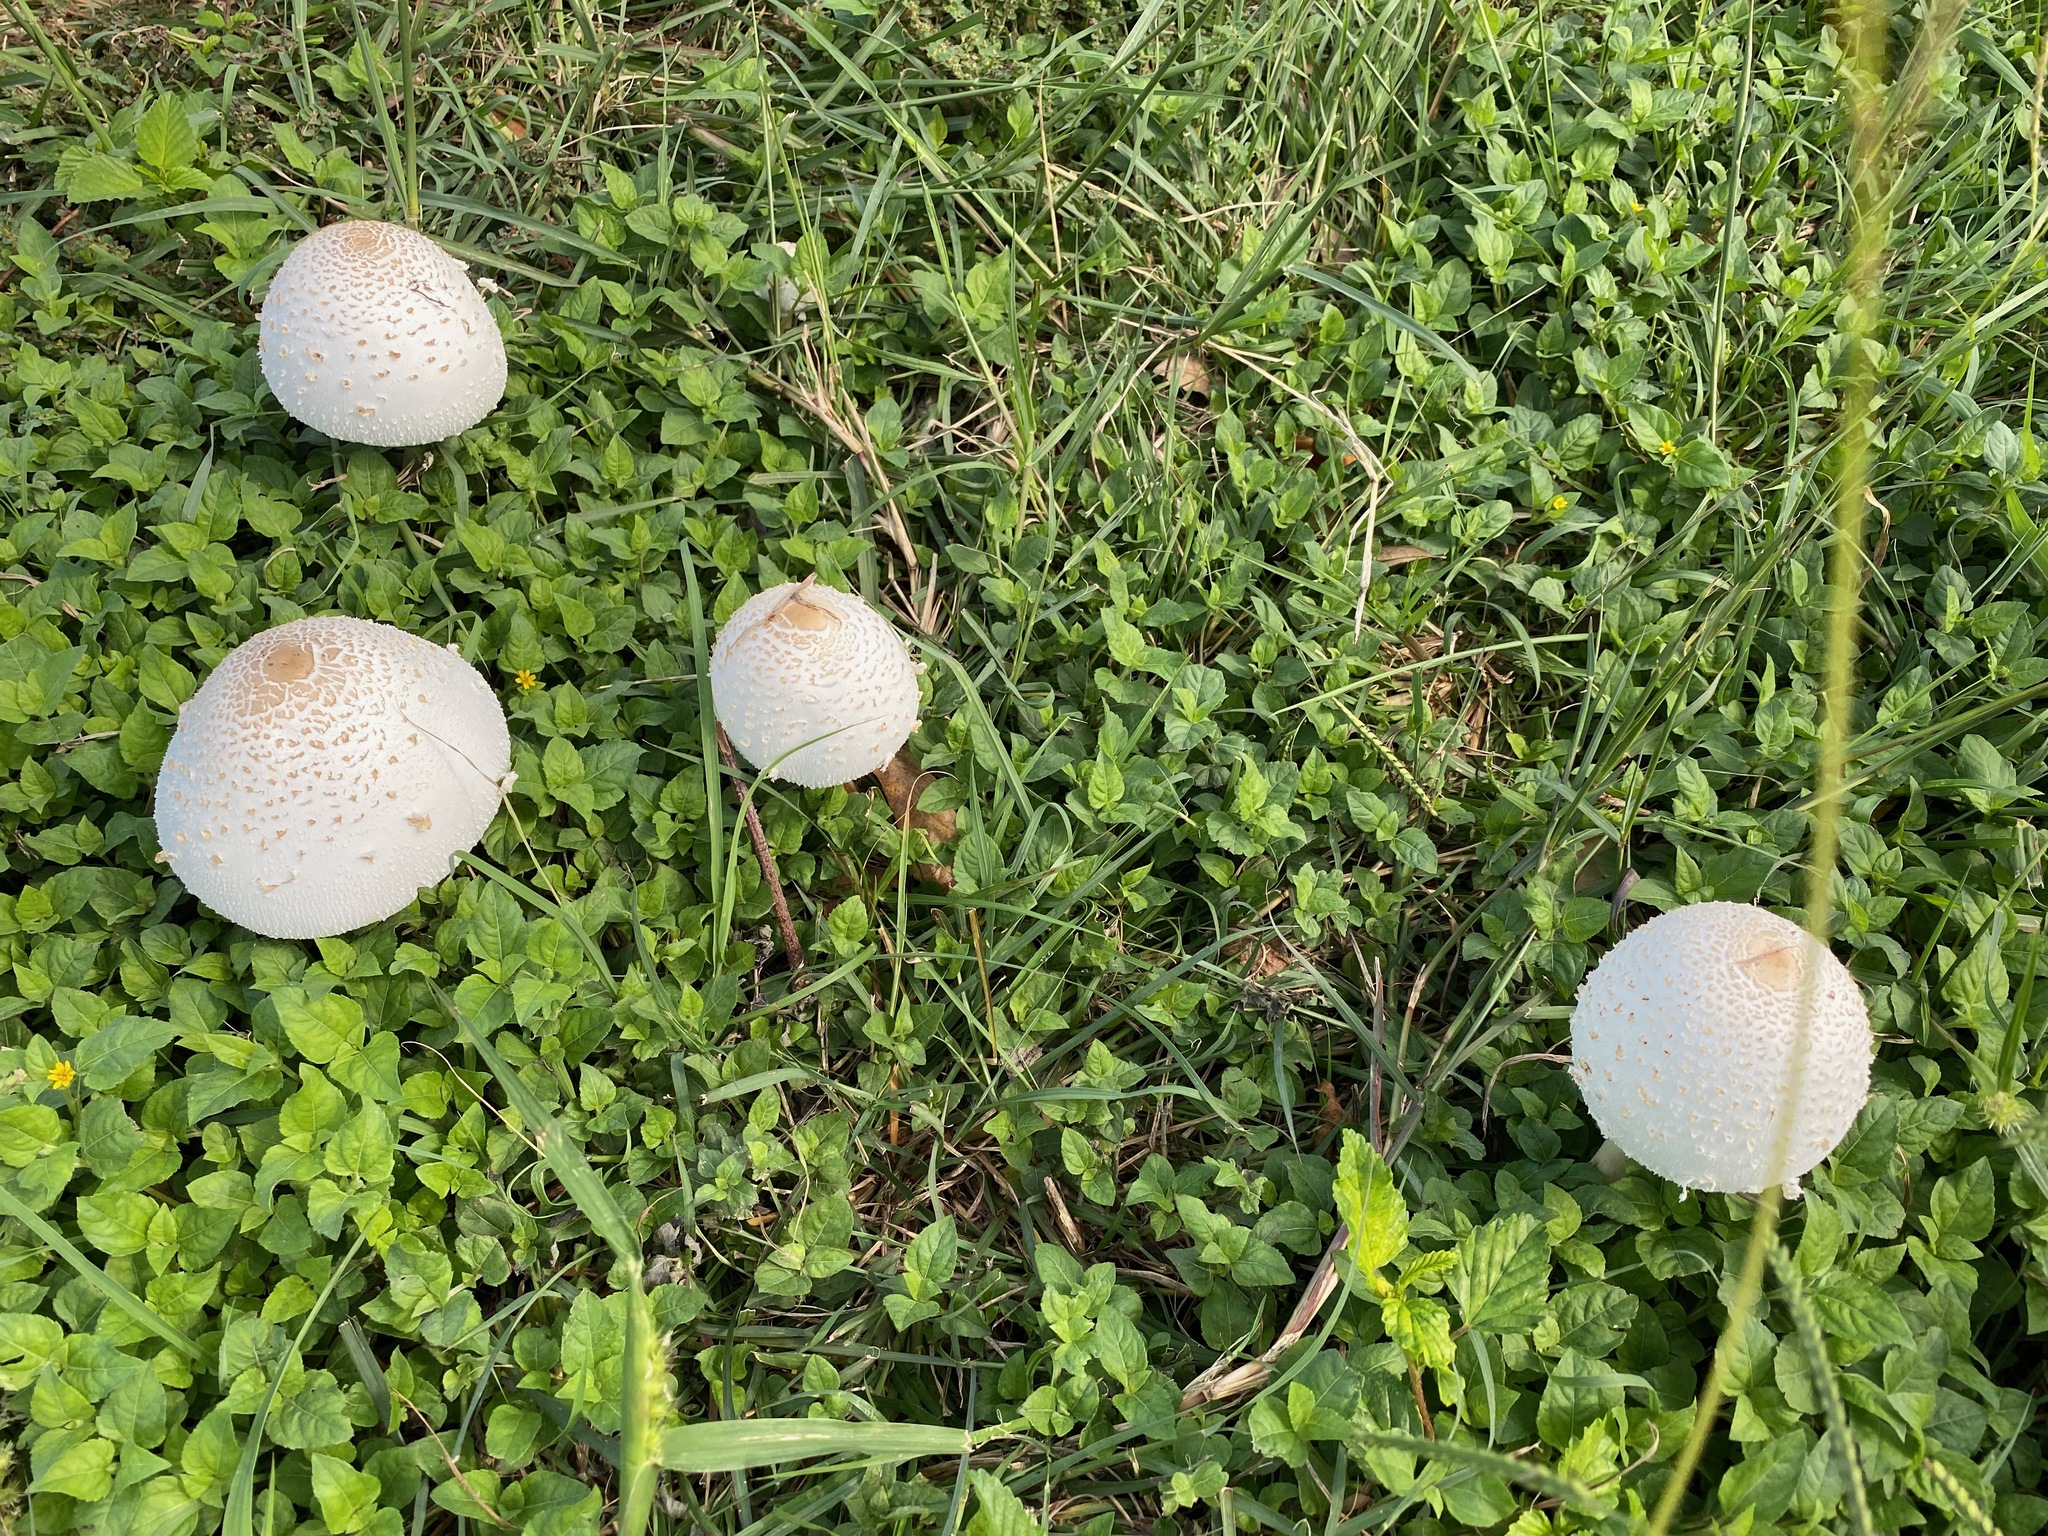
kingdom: Fungi
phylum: Basidiomycota
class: Agaricomycetes
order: Agaricales
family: Agaricaceae
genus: Chlorophyllum
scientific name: Chlorophyllum molybdites
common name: False parasol
